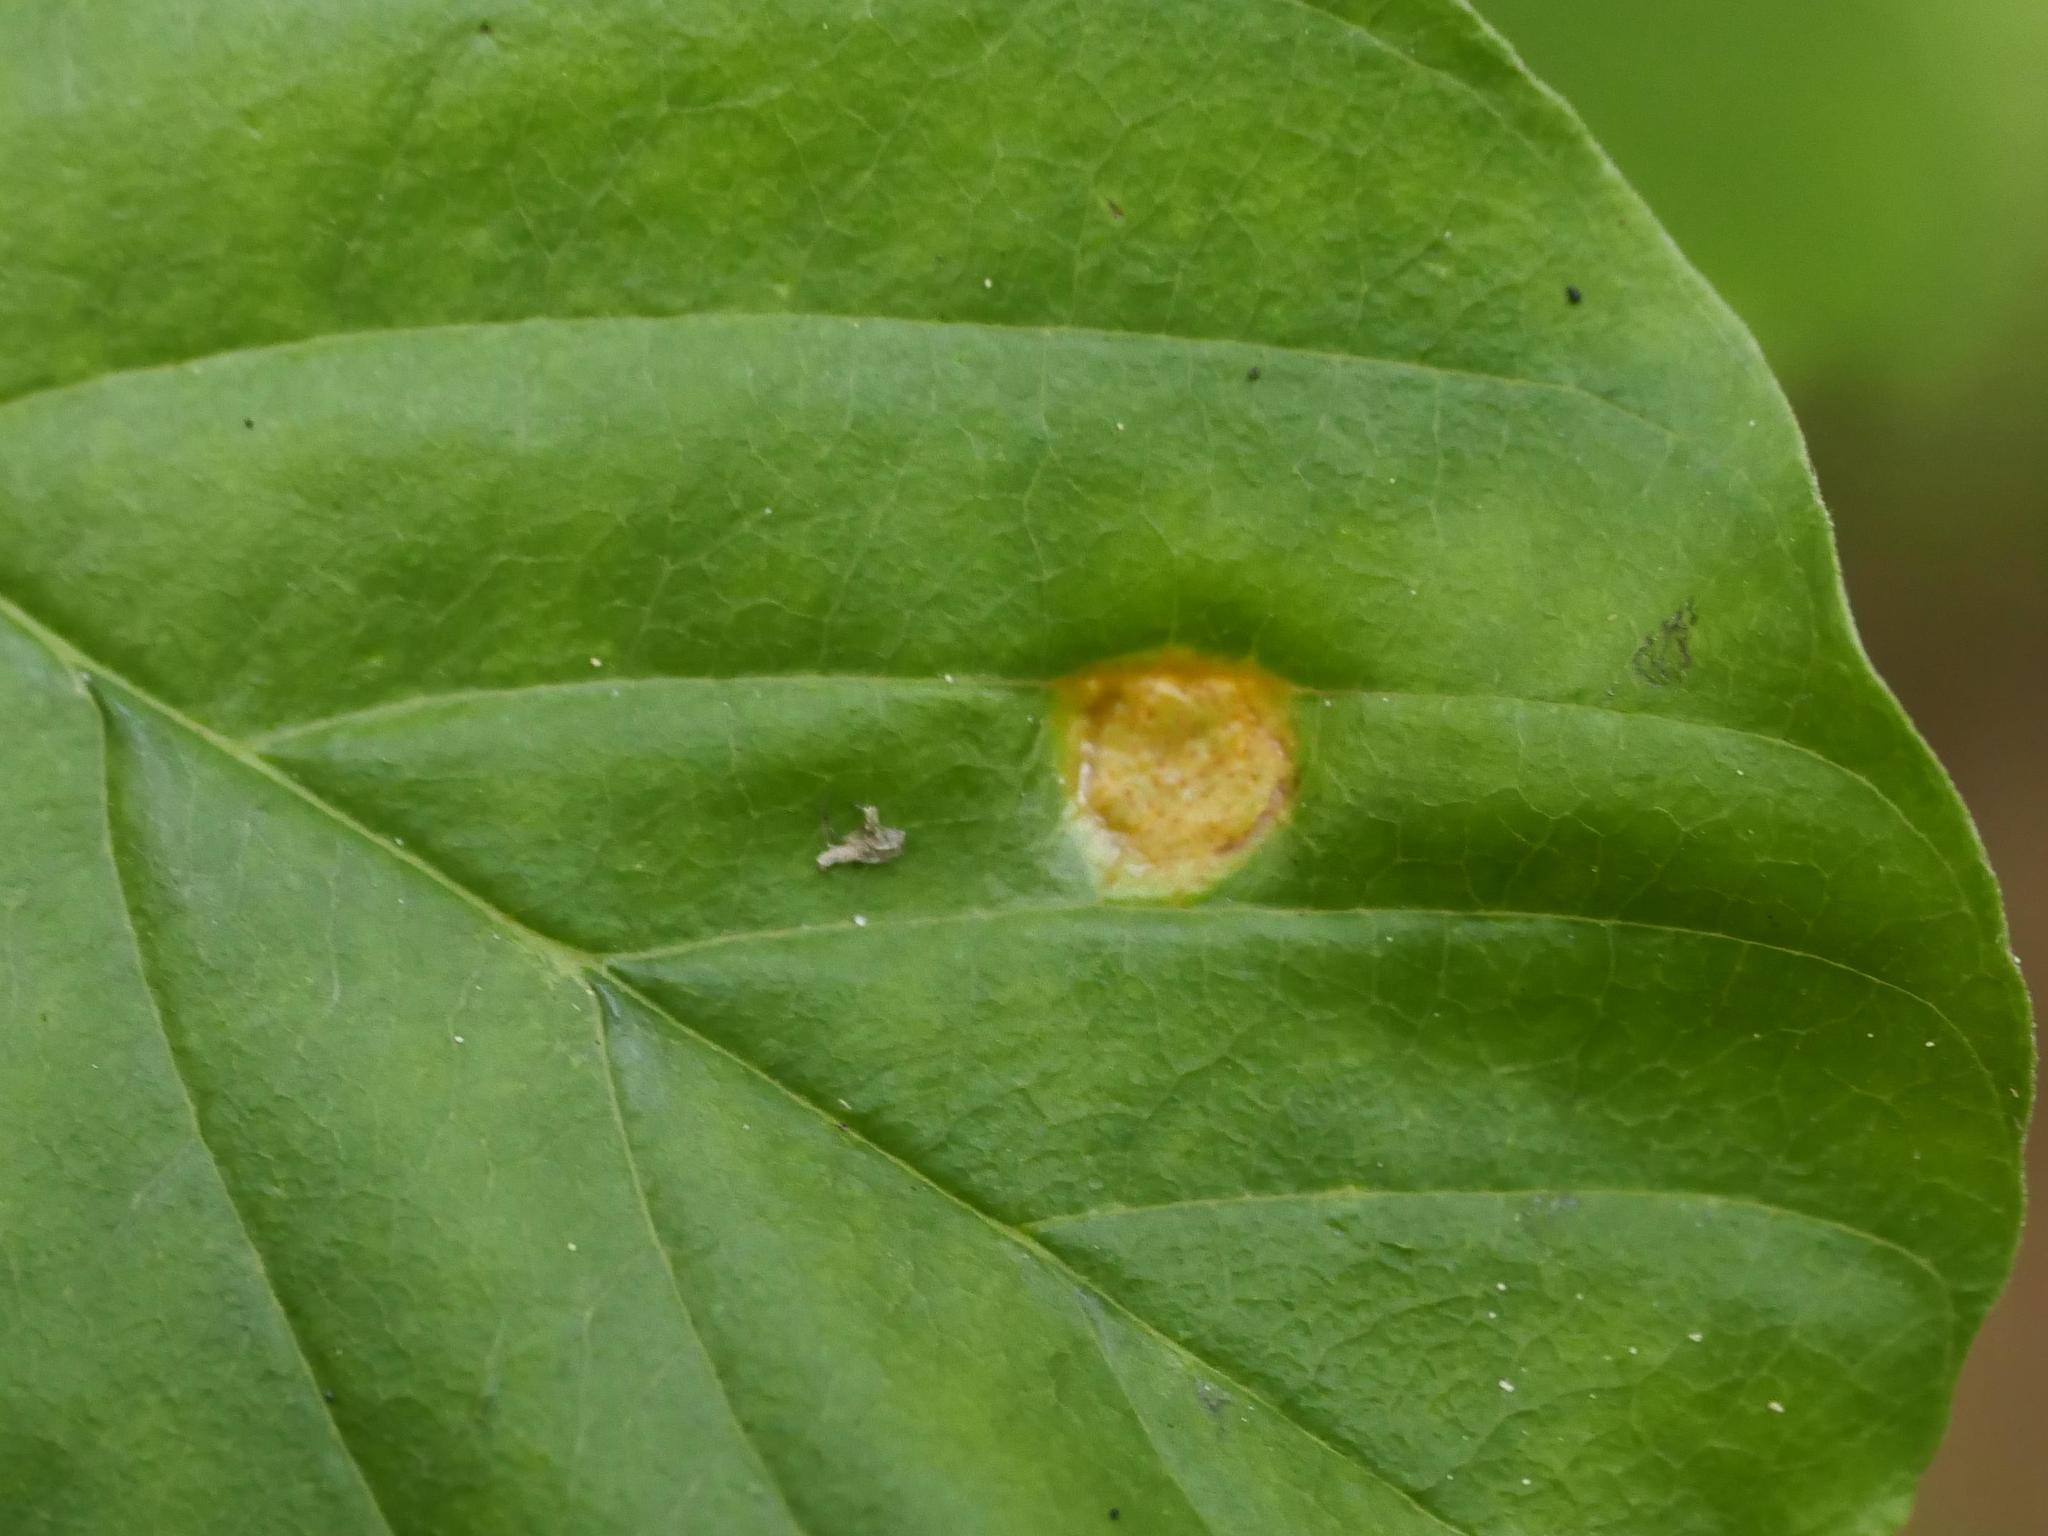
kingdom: Fungi
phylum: Basidiomycota
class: Pucciniomycetes
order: Pucciniales
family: Pucciniaceae
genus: Puccinia
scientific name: Puccinia coronata
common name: Crown rust
